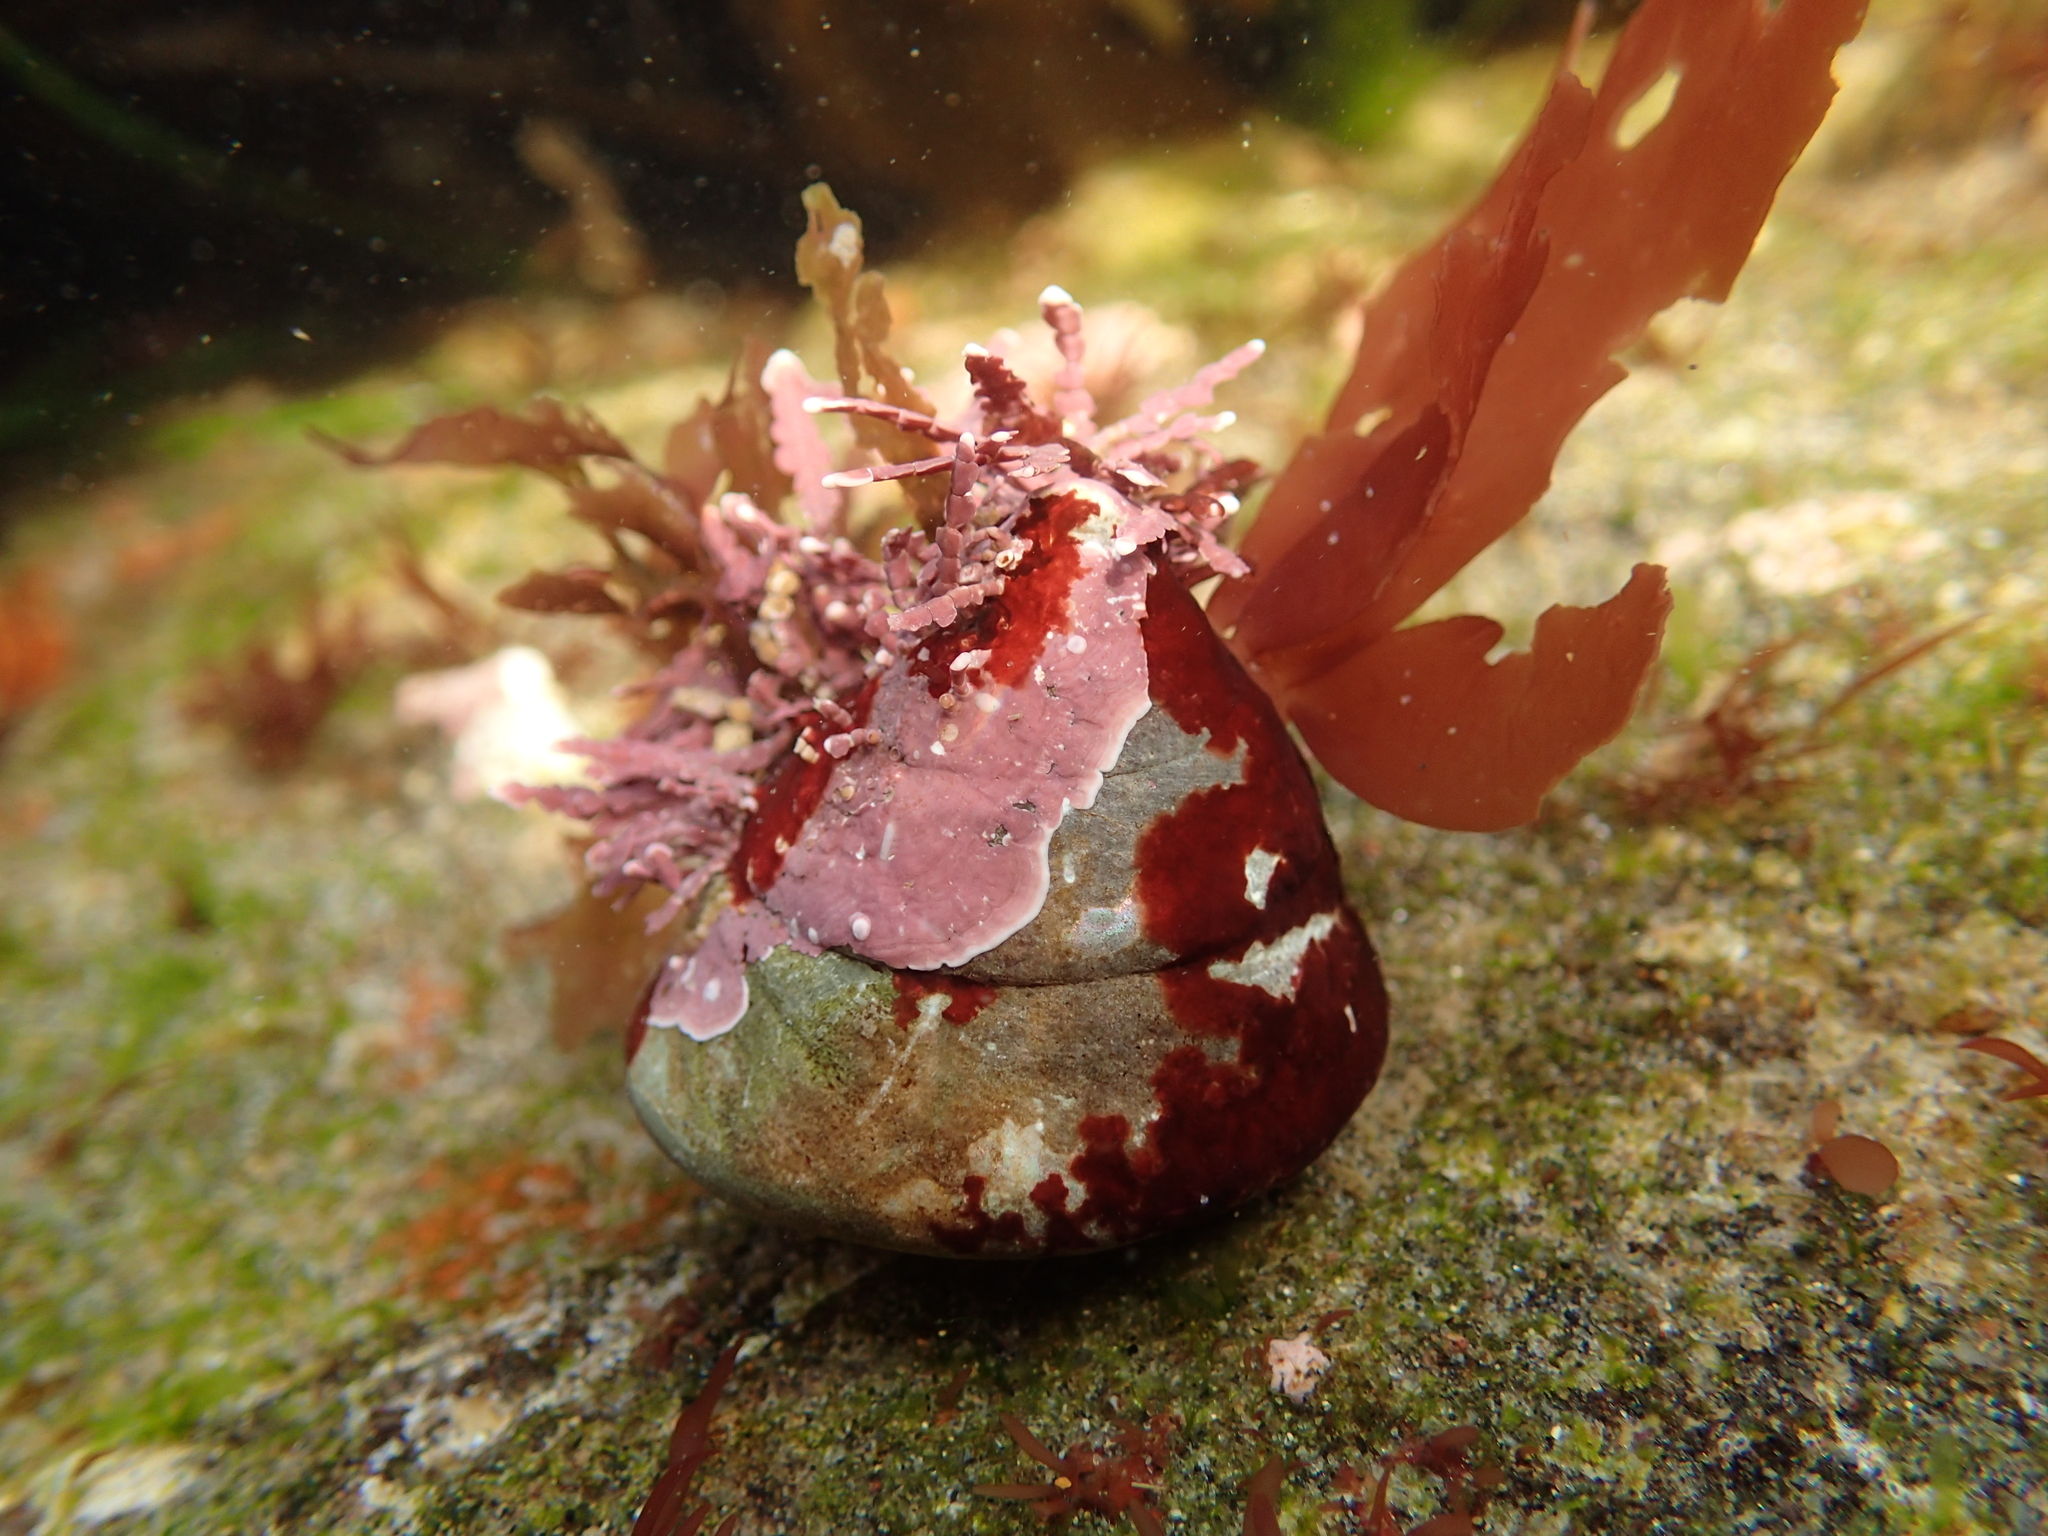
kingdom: Animalia
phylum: Mollusca
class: Gastropoda
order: Trochida
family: Tegulidae
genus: Tegula
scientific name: Tegula brunnea
